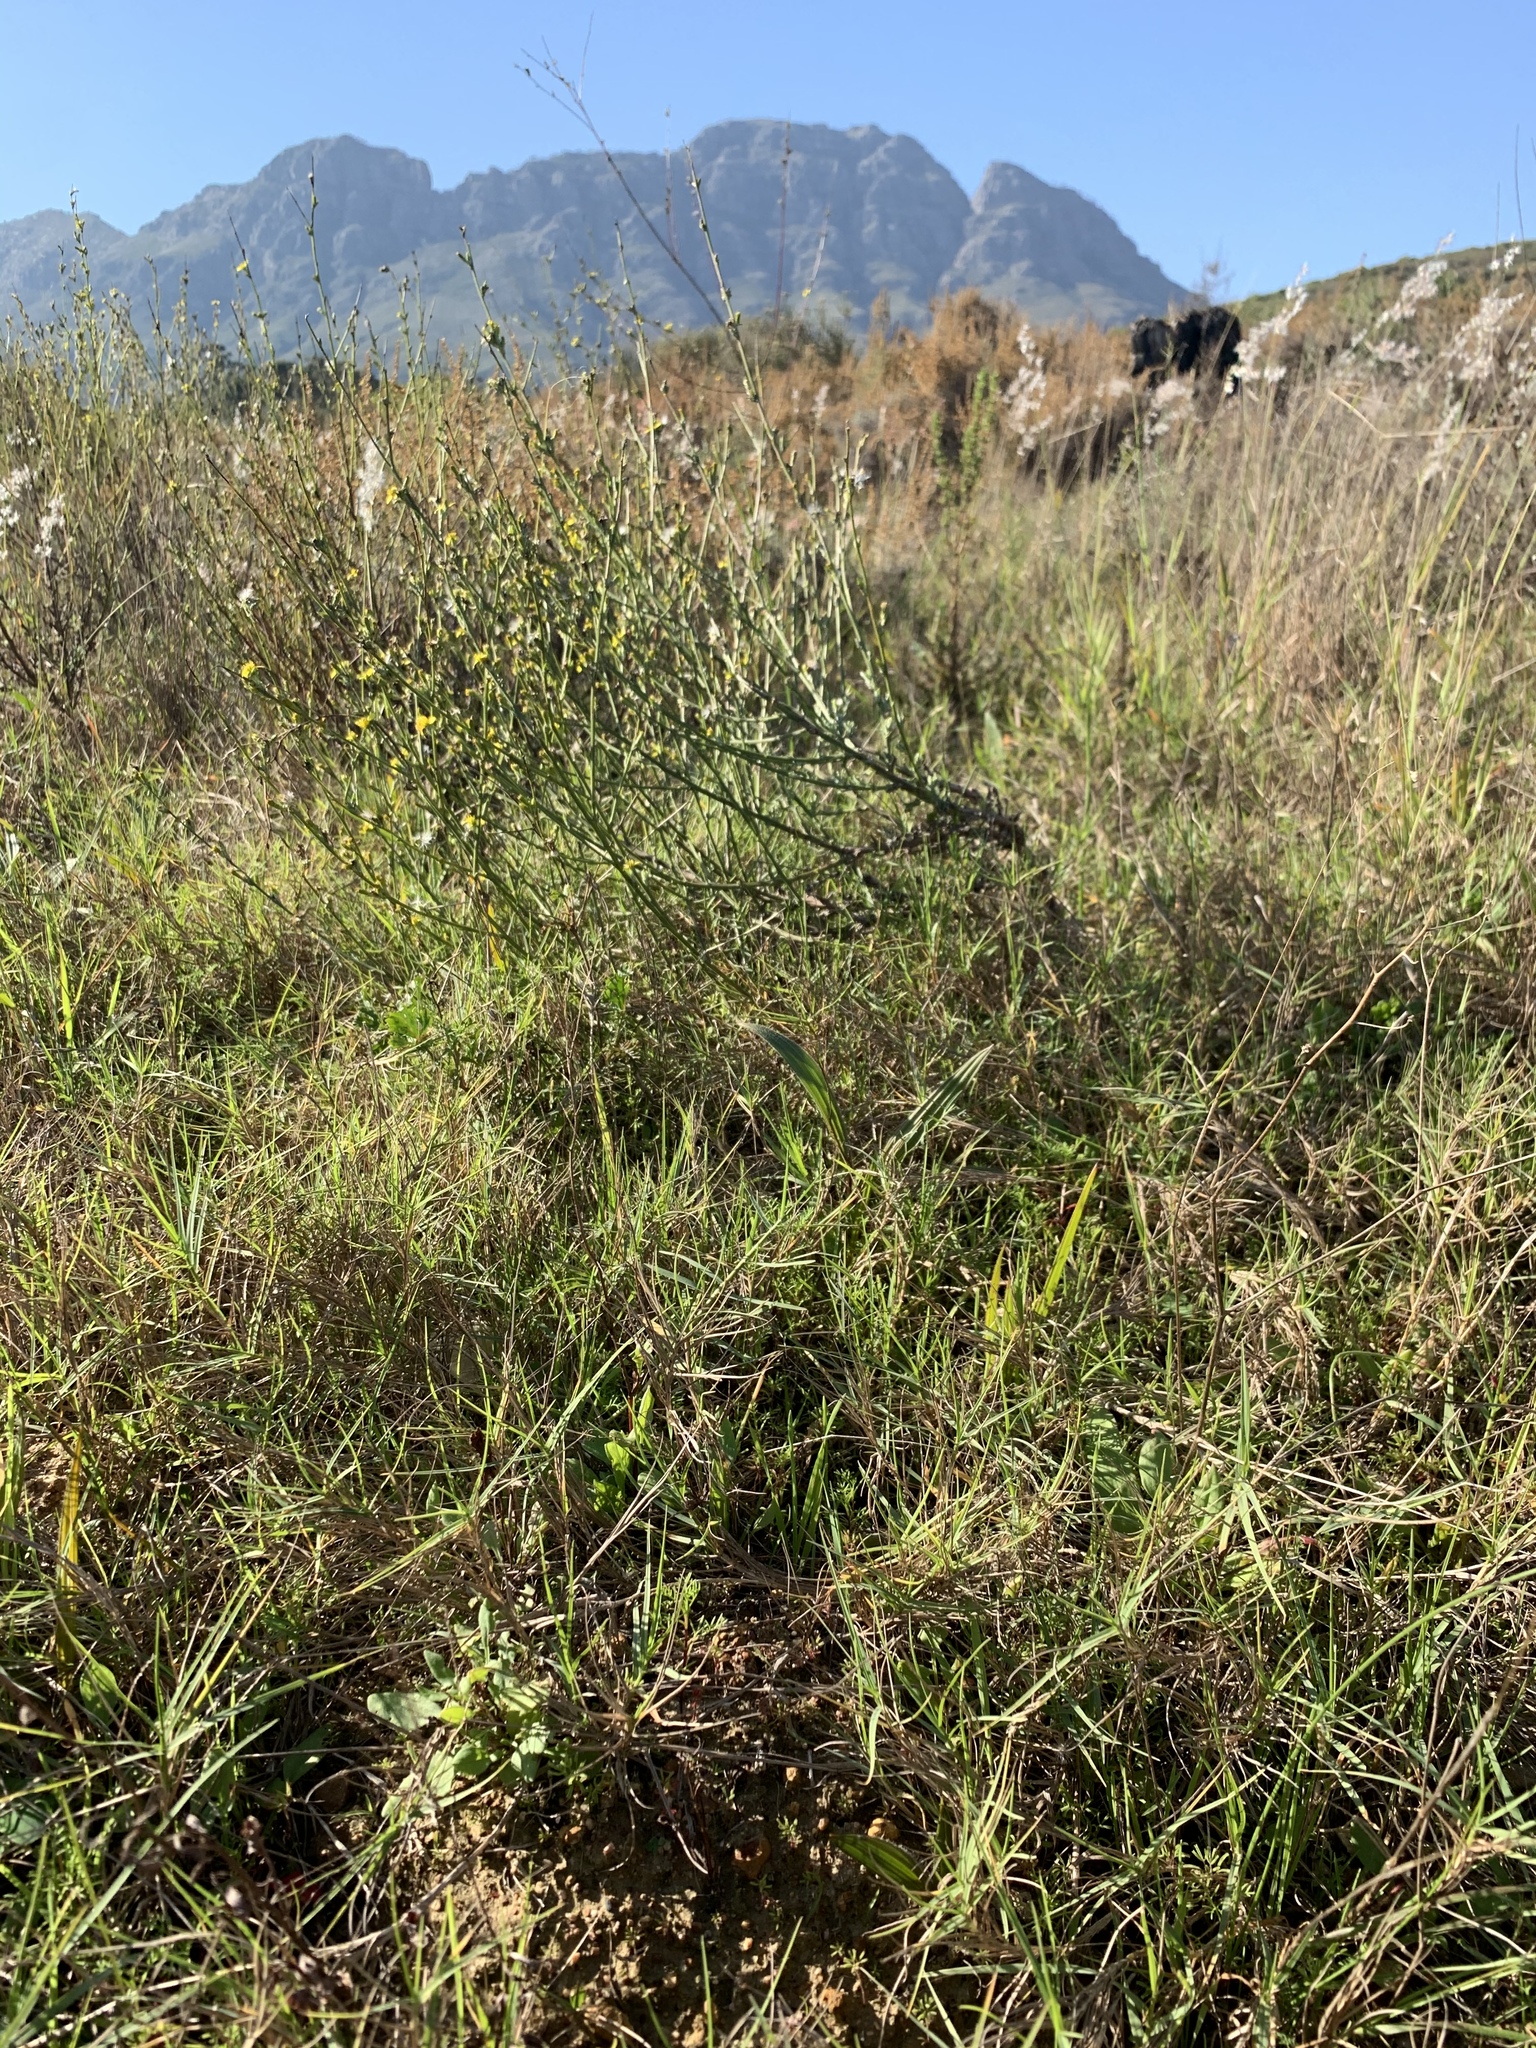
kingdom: Plantae
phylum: Tracheophyta
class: Liliopsida
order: Poales
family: Poaceae
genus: Cynodon
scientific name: Cynodon dactylon
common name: Bermuda grass
